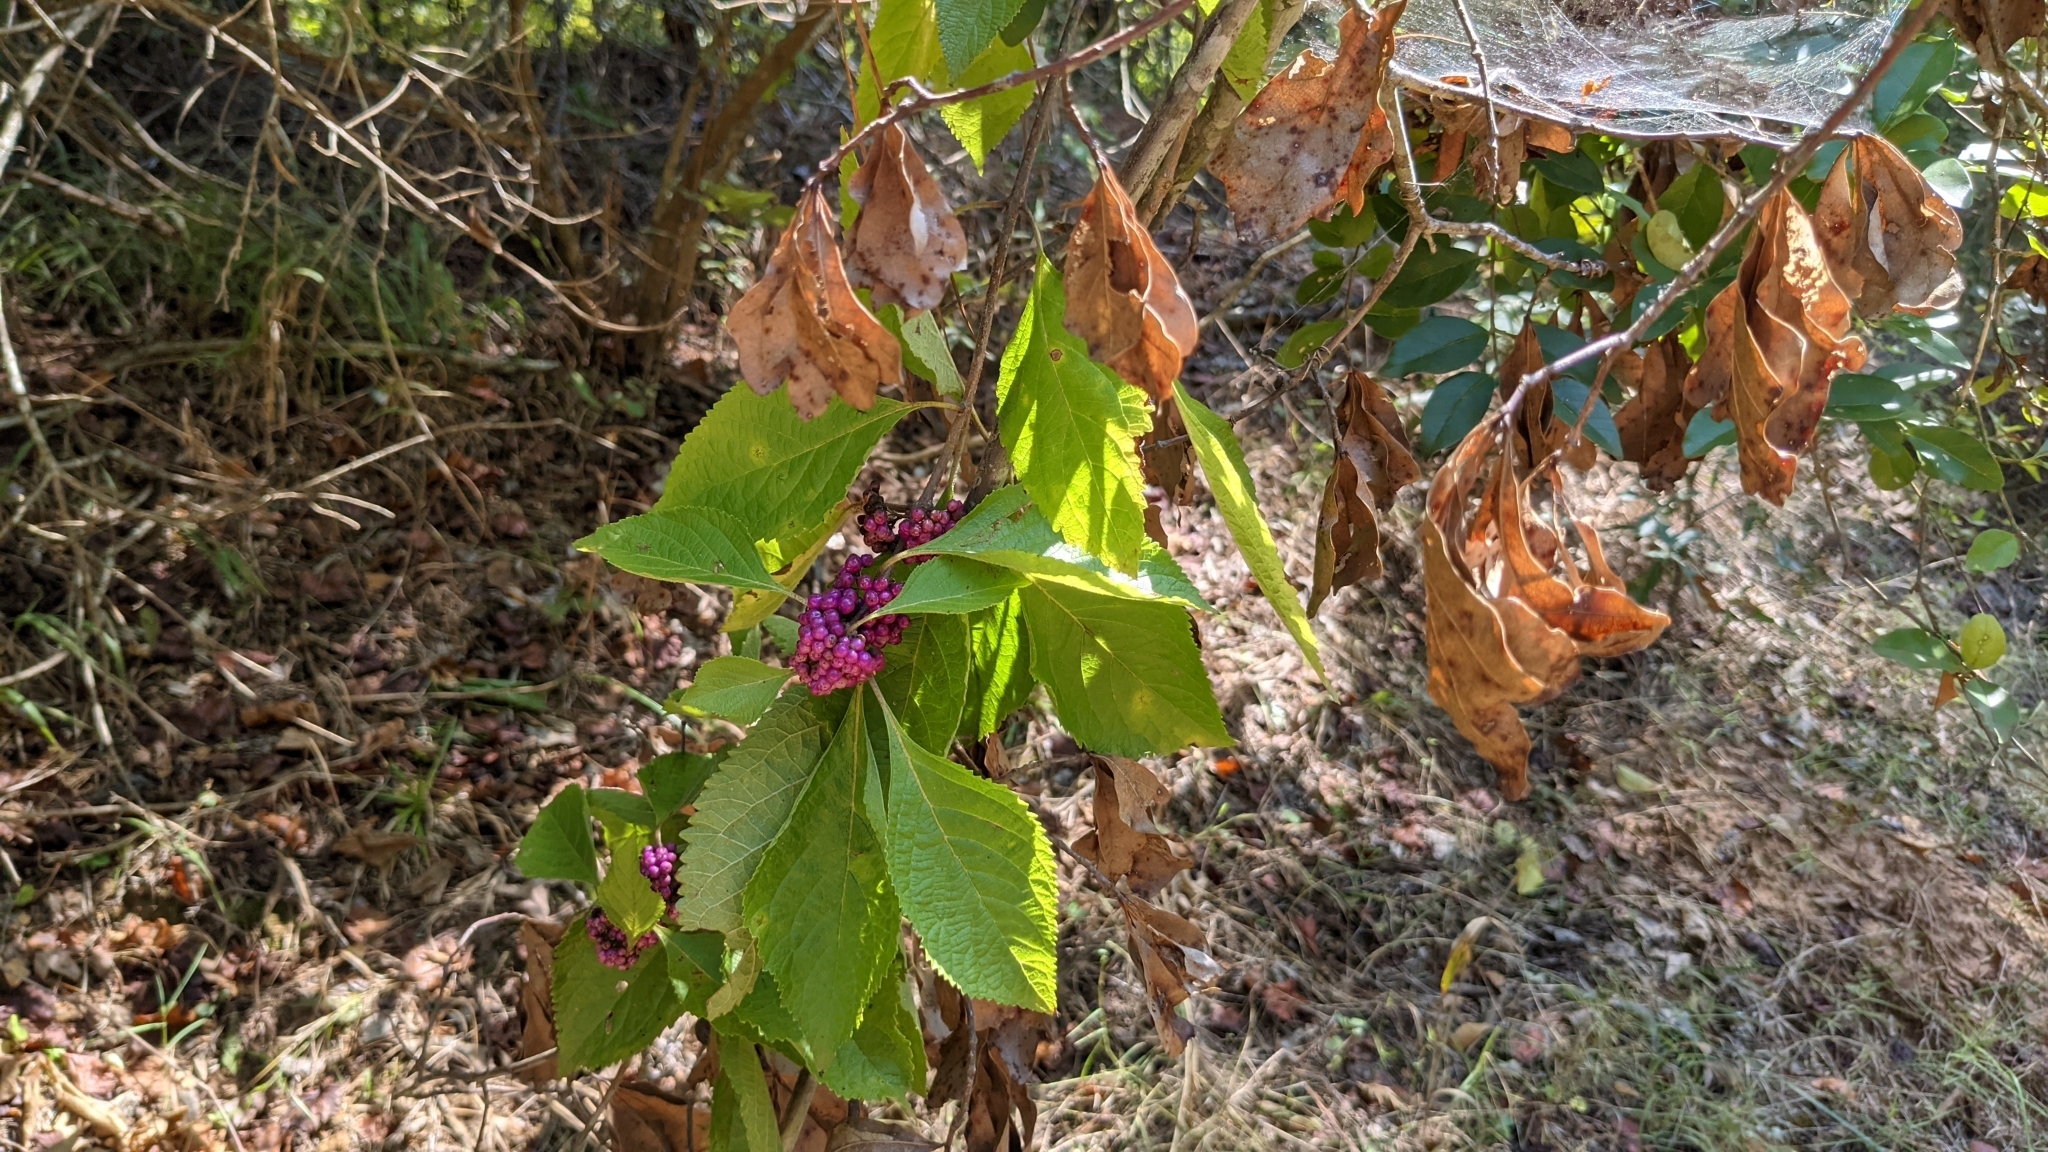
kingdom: Plantae
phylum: Tracheophyta
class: Magnoliopsida
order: Lamiales
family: Lamiaceae
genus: Callicarpa
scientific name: Callicarpa americana
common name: American beautyberry
